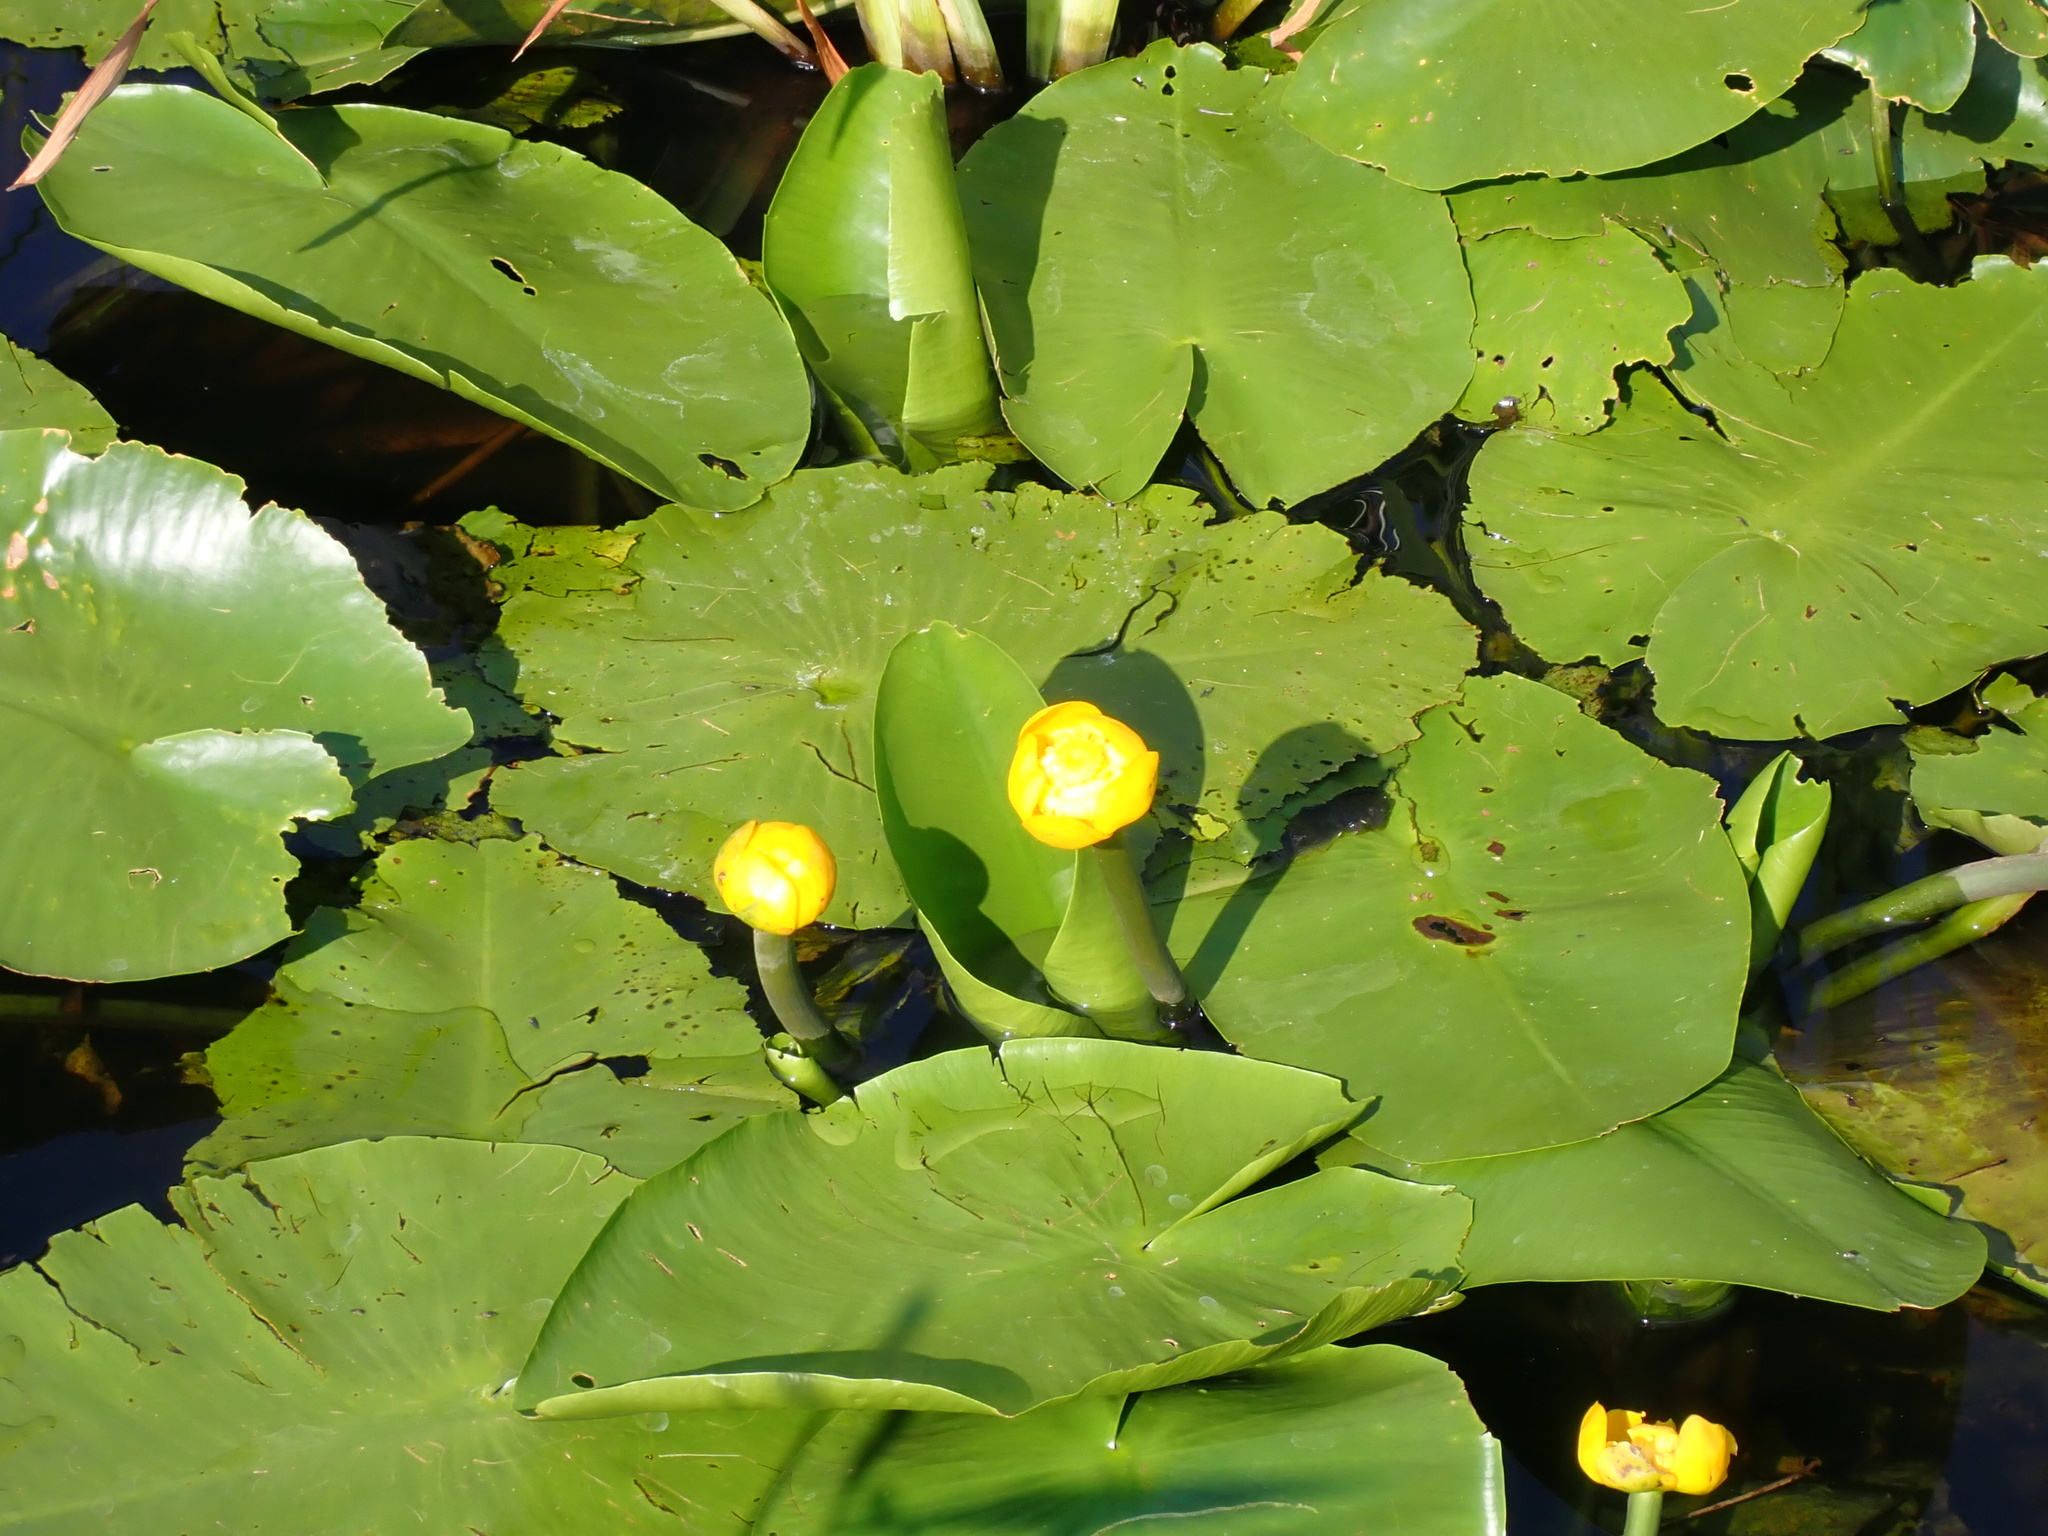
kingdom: Plantae
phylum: Tracheophyta
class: Magnoliopsida
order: Nymphaeales
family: Nymphaeaceae
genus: Nuphar
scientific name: Nuphar lutea
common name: Yellow water-lily
